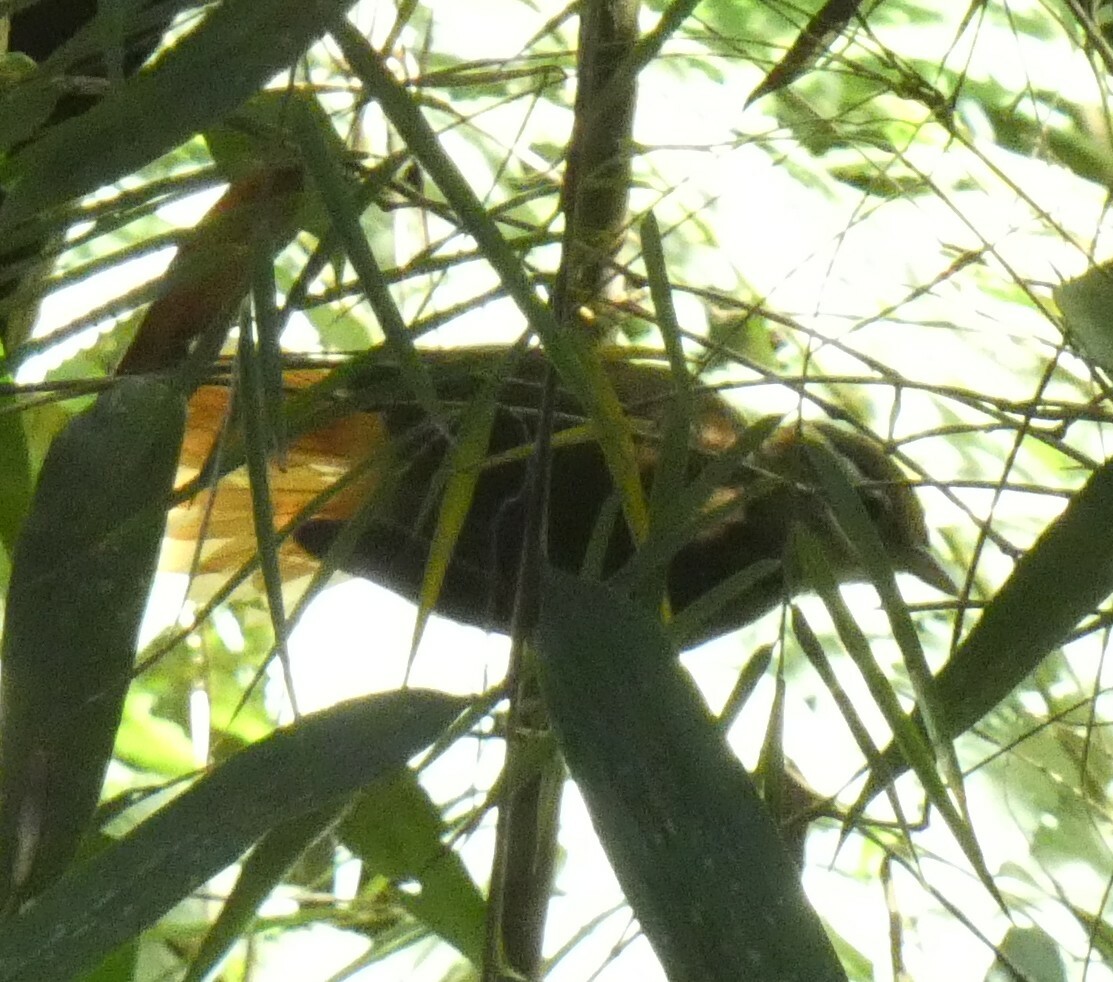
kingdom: Animalia
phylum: Chordata
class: Aves
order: Passeriformes
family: Furnariidae
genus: Anabazenops
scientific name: Anabazenops fuscus
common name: White-collared foliage-gleaner
